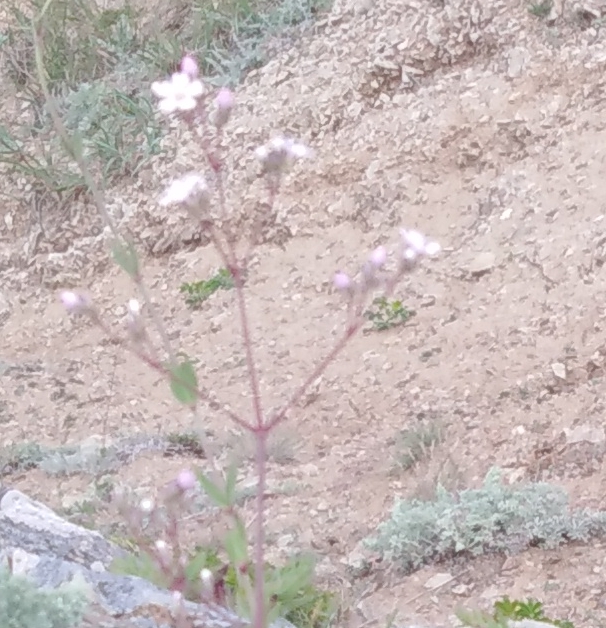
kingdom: Plantae
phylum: Tracheophyta
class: Magnoliopsida
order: Caryophyllales
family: Caryophyllaceae
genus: Gypsophila
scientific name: Gypsophila pacifica
